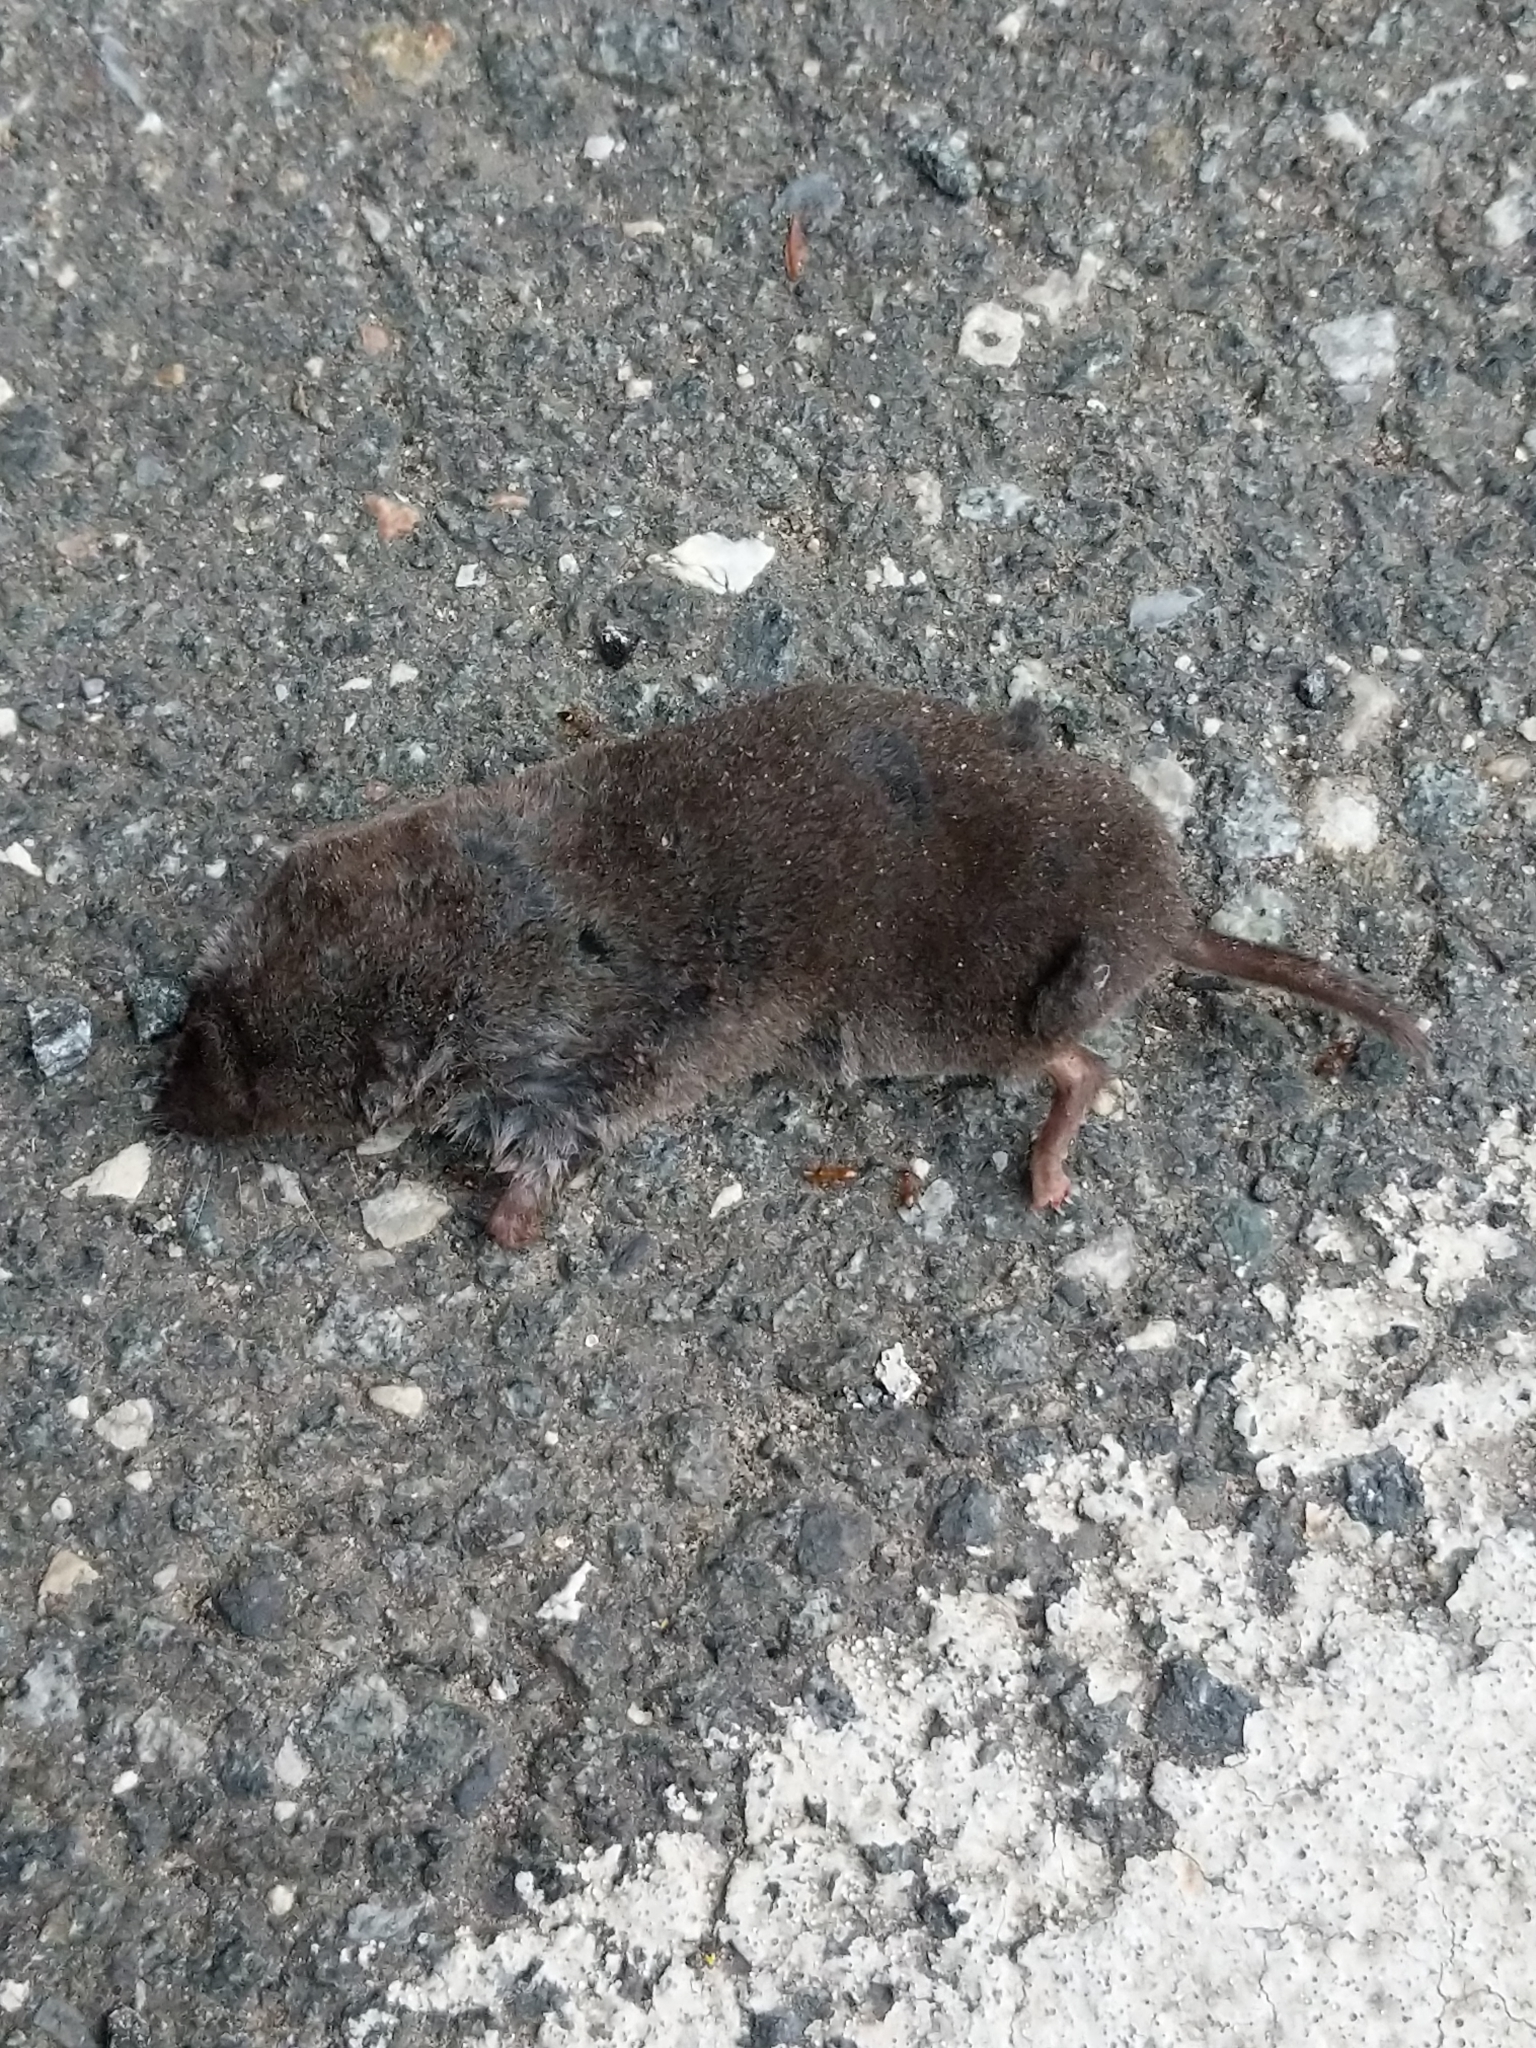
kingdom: Animalia
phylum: Chordata
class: Mammalia
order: Soricomorpha
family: Soricidae
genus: Blarina
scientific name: Blarina brevicauda
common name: Northern short-tailed shrew
